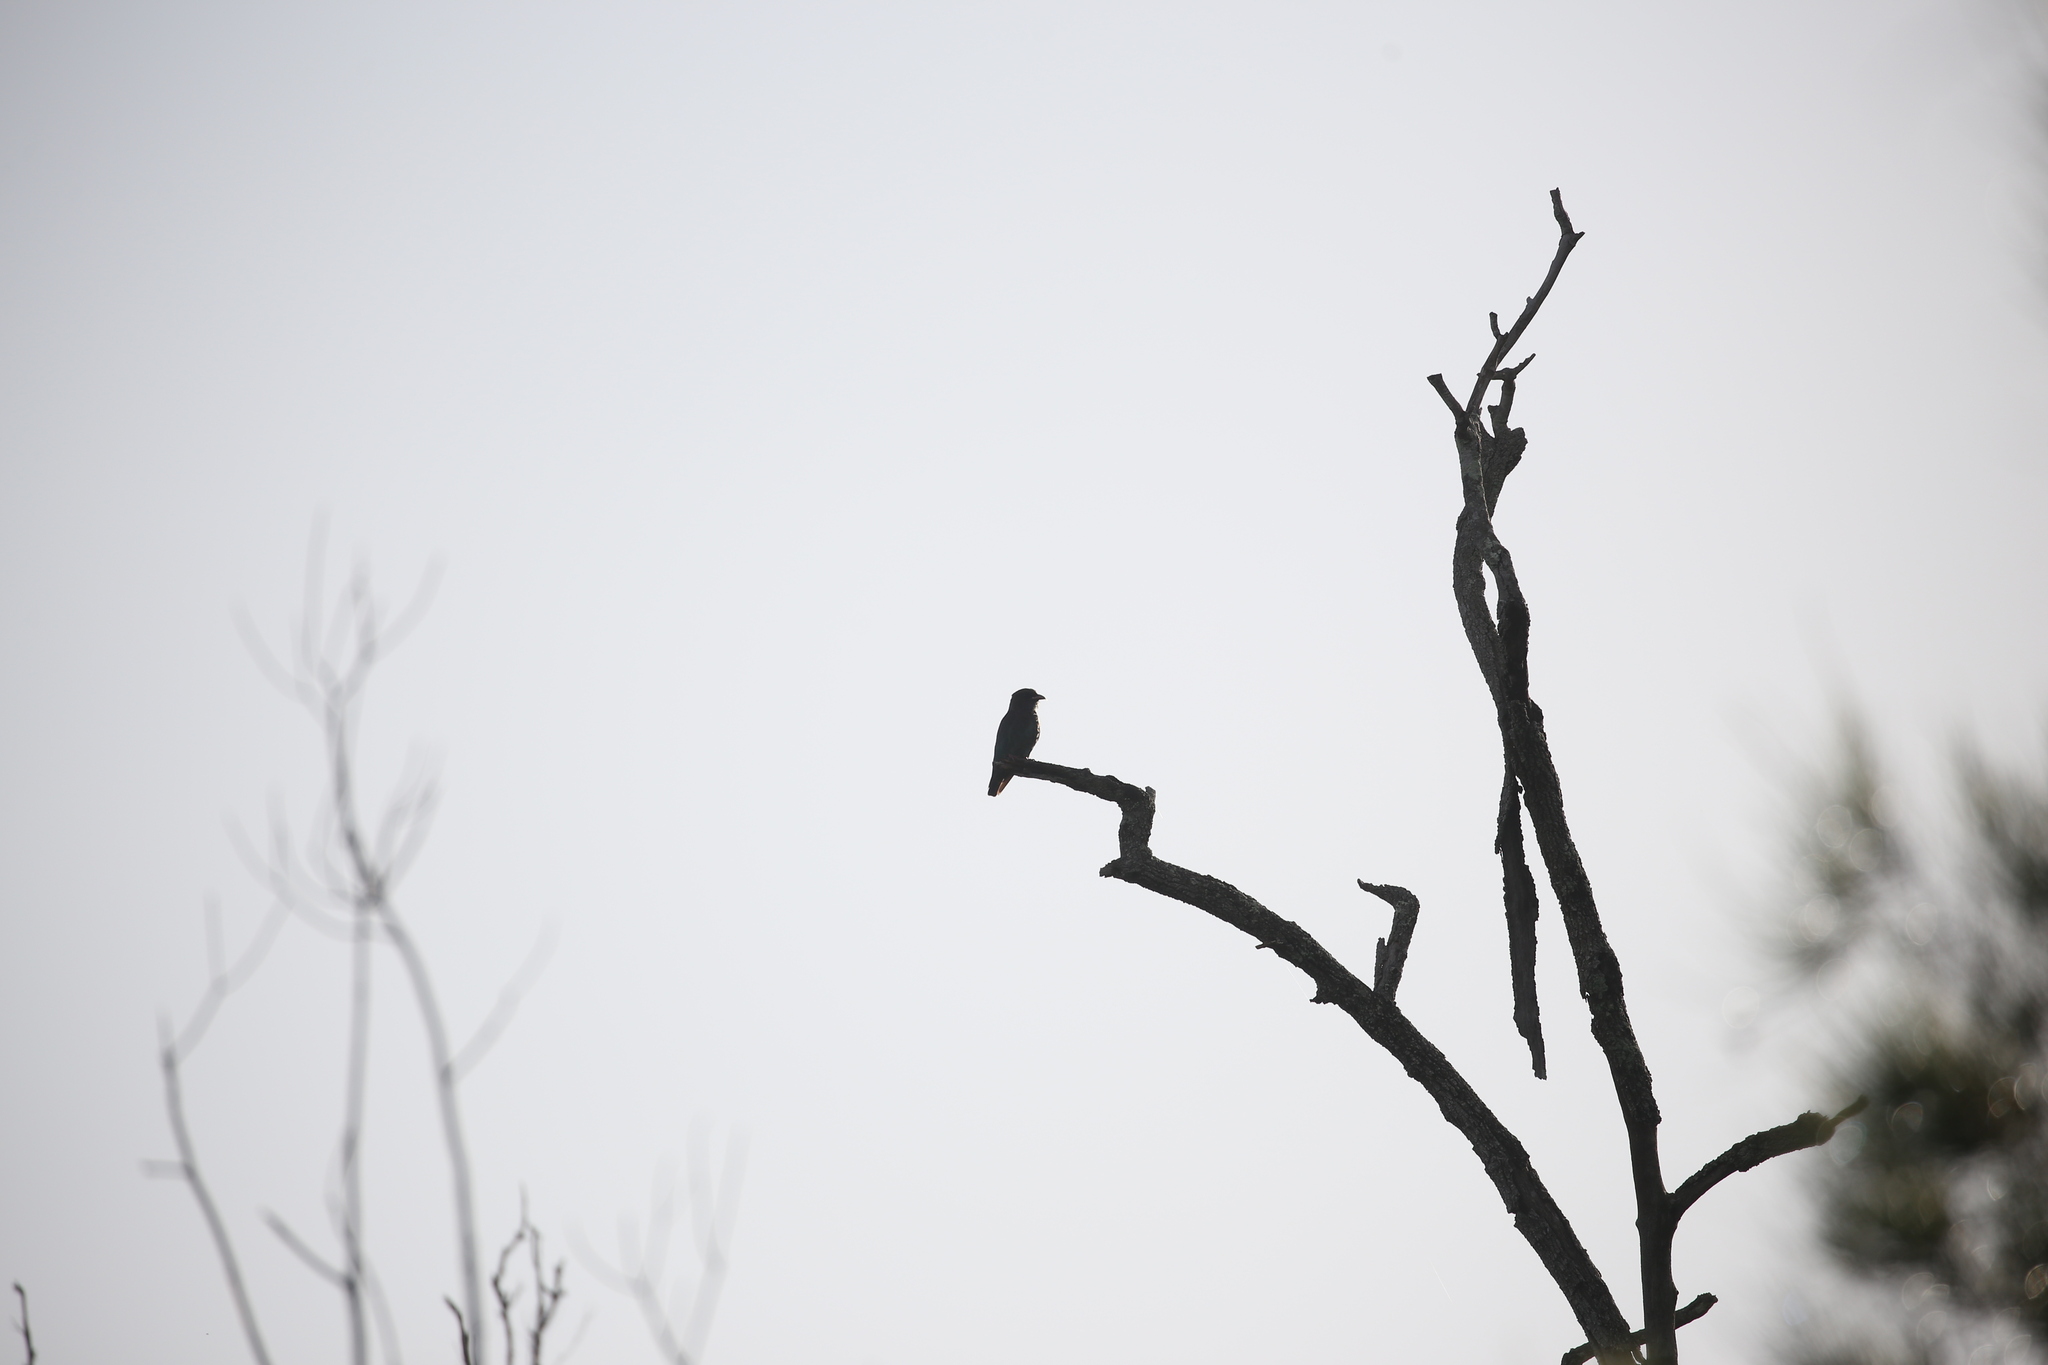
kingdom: Animalia
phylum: Chordata
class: Aves
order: Coraciiformes
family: Coraciidae
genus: Eurystomus
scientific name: Eurystomus orientalis
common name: Oriental dollarbird
